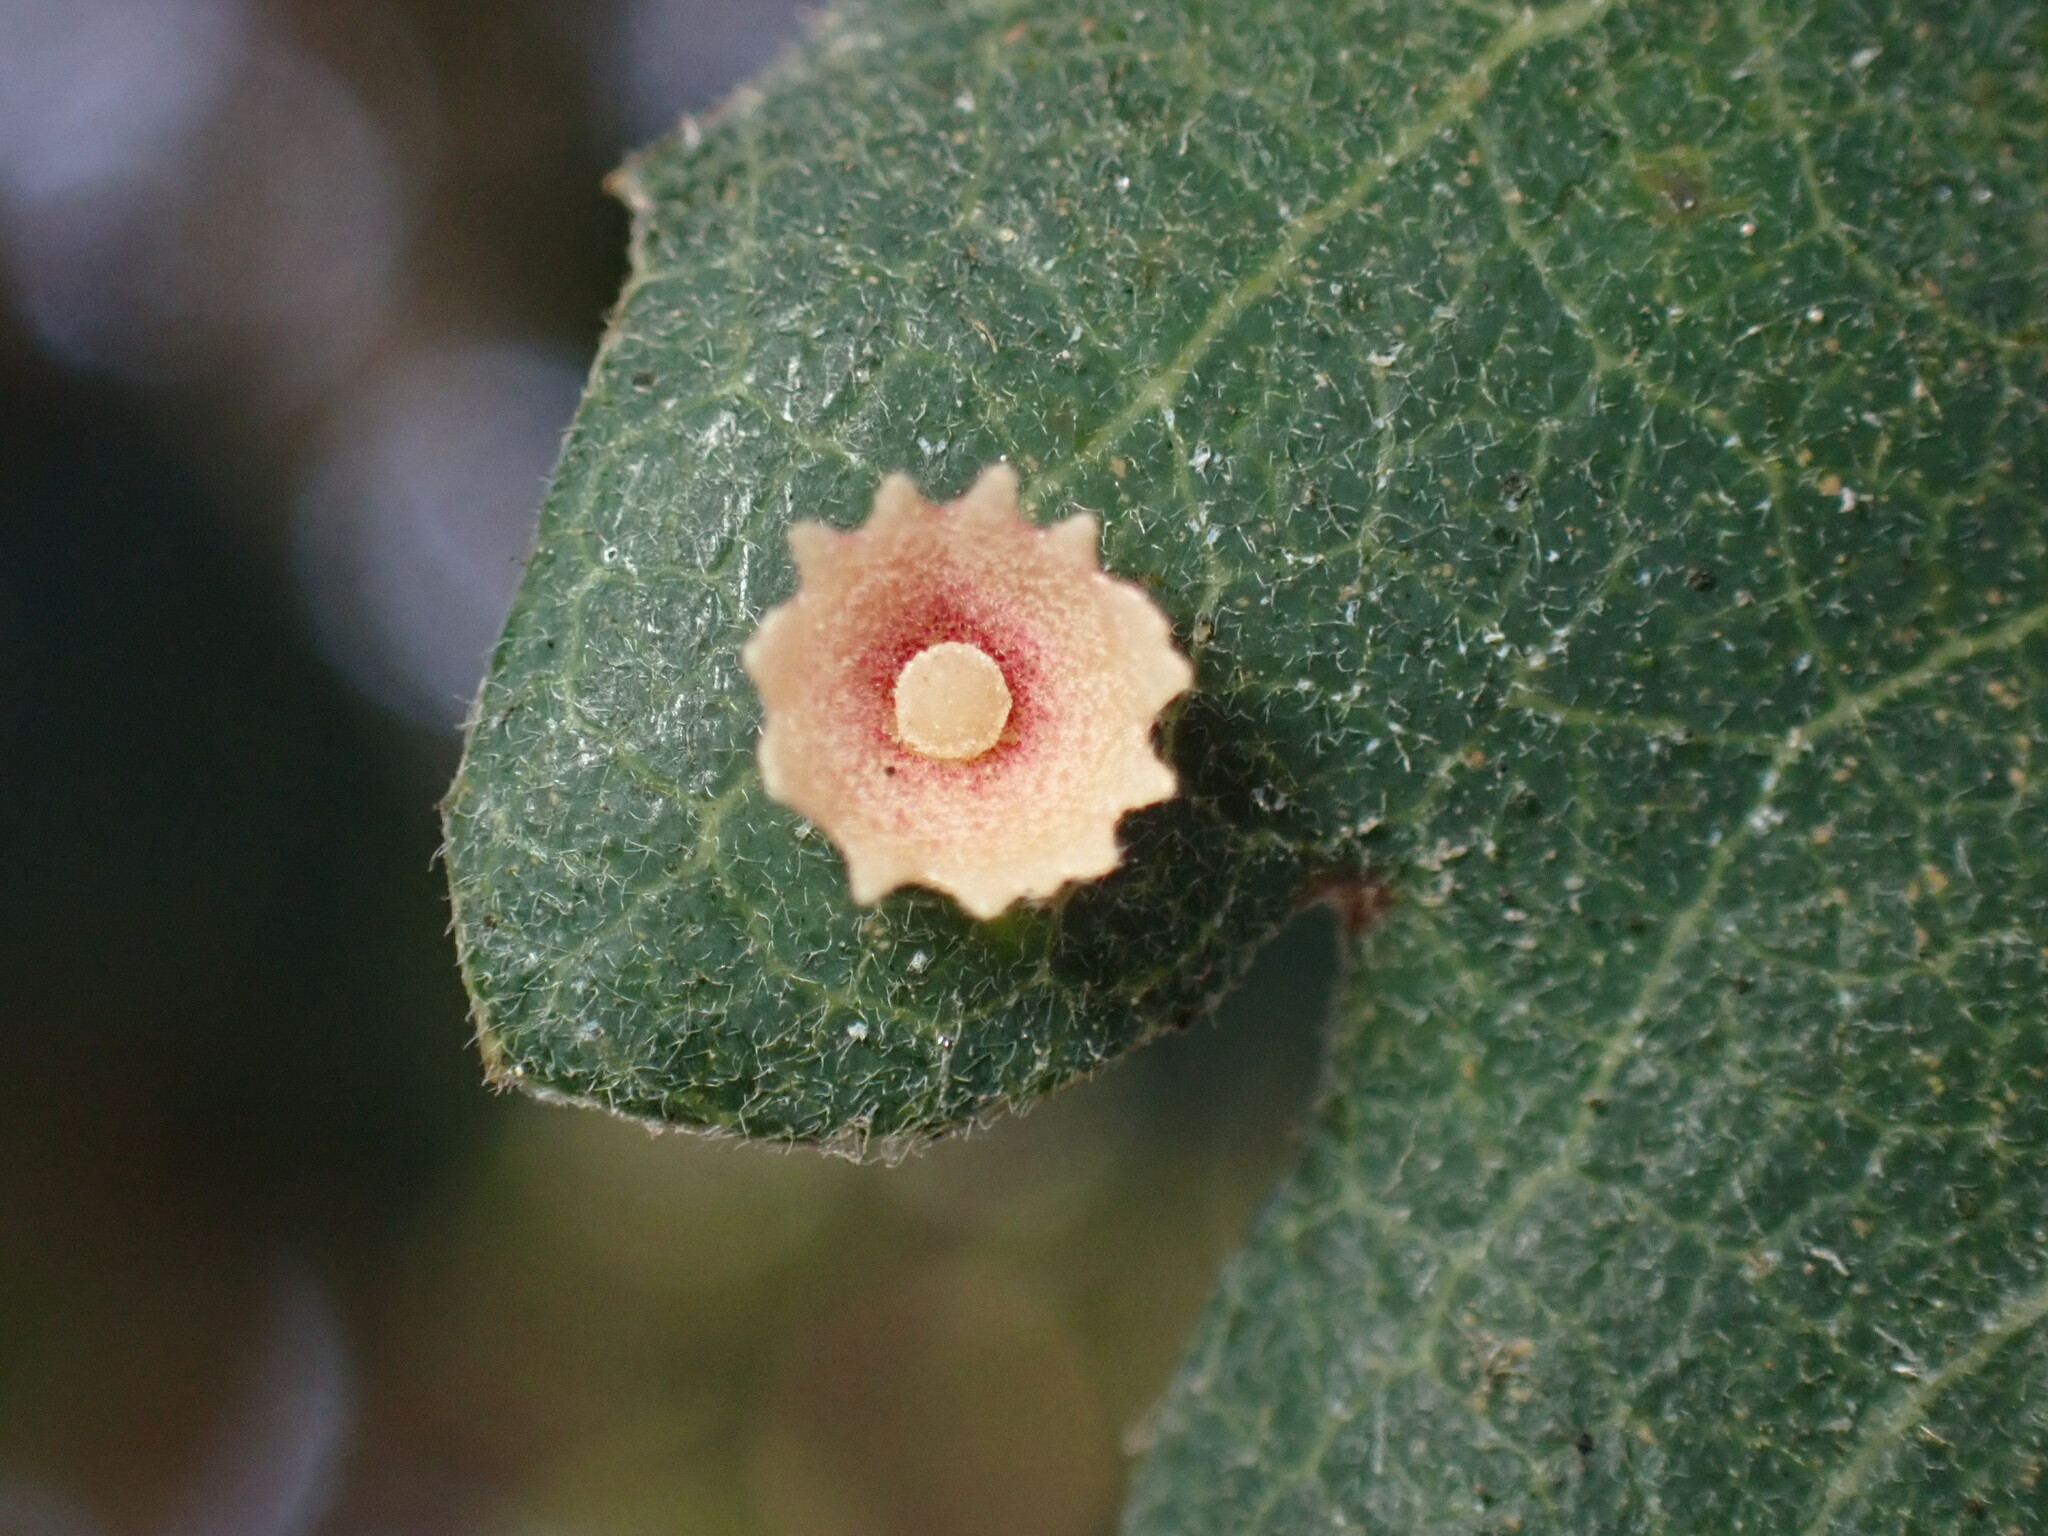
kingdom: Animalia
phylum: Arthropoda
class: Insecta
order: Hymenoptera
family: Cynipidae
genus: Andricus
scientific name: Andricus
